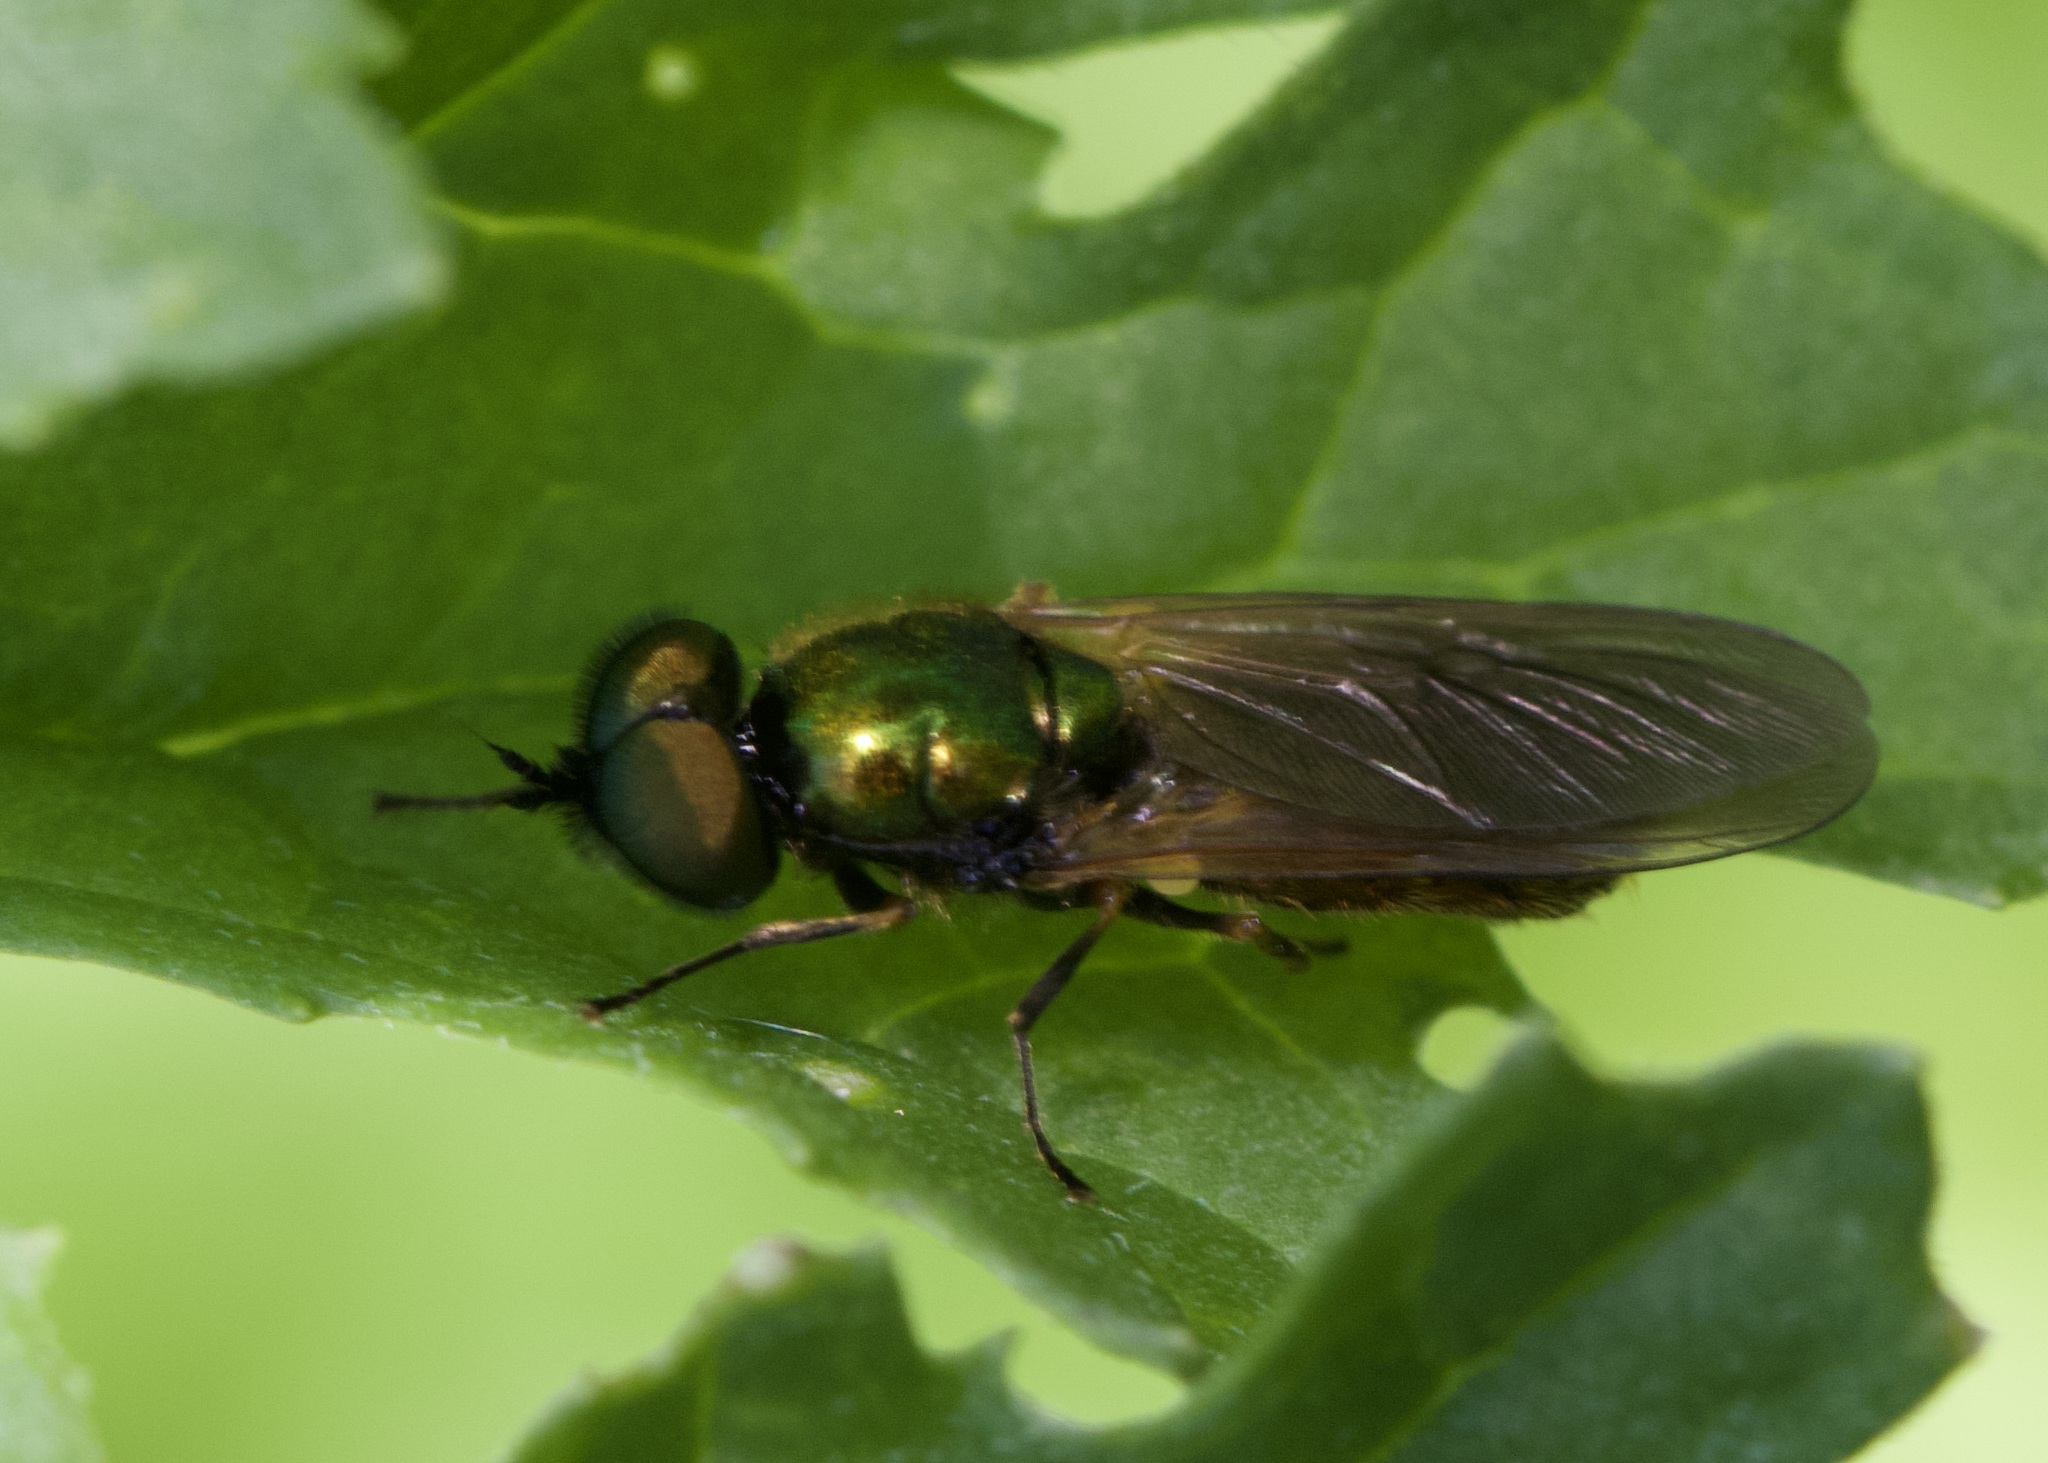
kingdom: Animalia
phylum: Arthropoda
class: Insecta
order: Diptera
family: Stratiomyidae
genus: Chloromyia
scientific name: Chloromyia formosa
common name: Soldier fly
